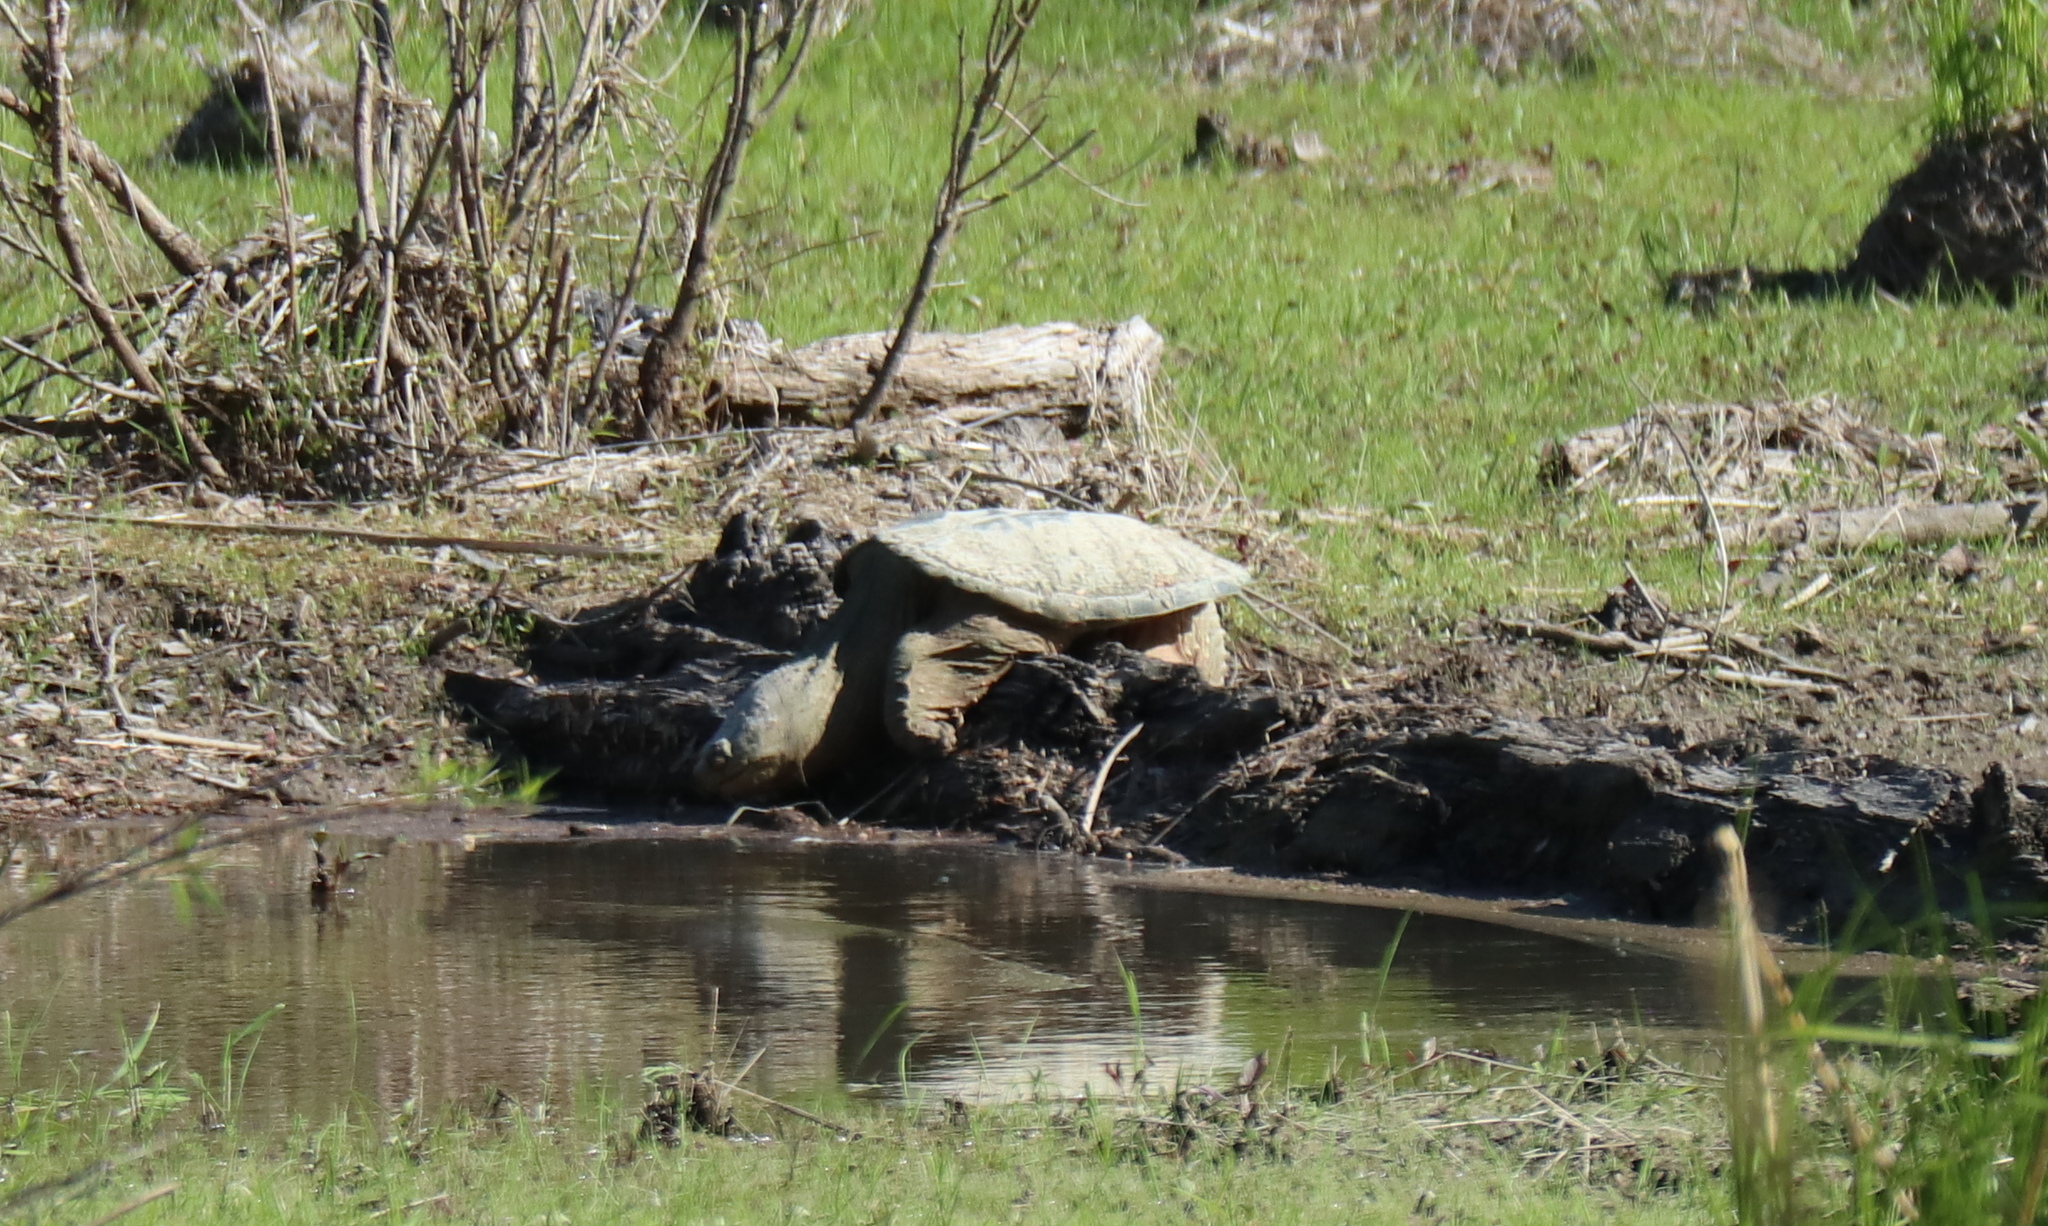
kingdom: Animalia
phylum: Chordata
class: Testudines
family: Chelydridae
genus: Chelydra
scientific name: Chelydra serpentina
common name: Common snapping turtle
